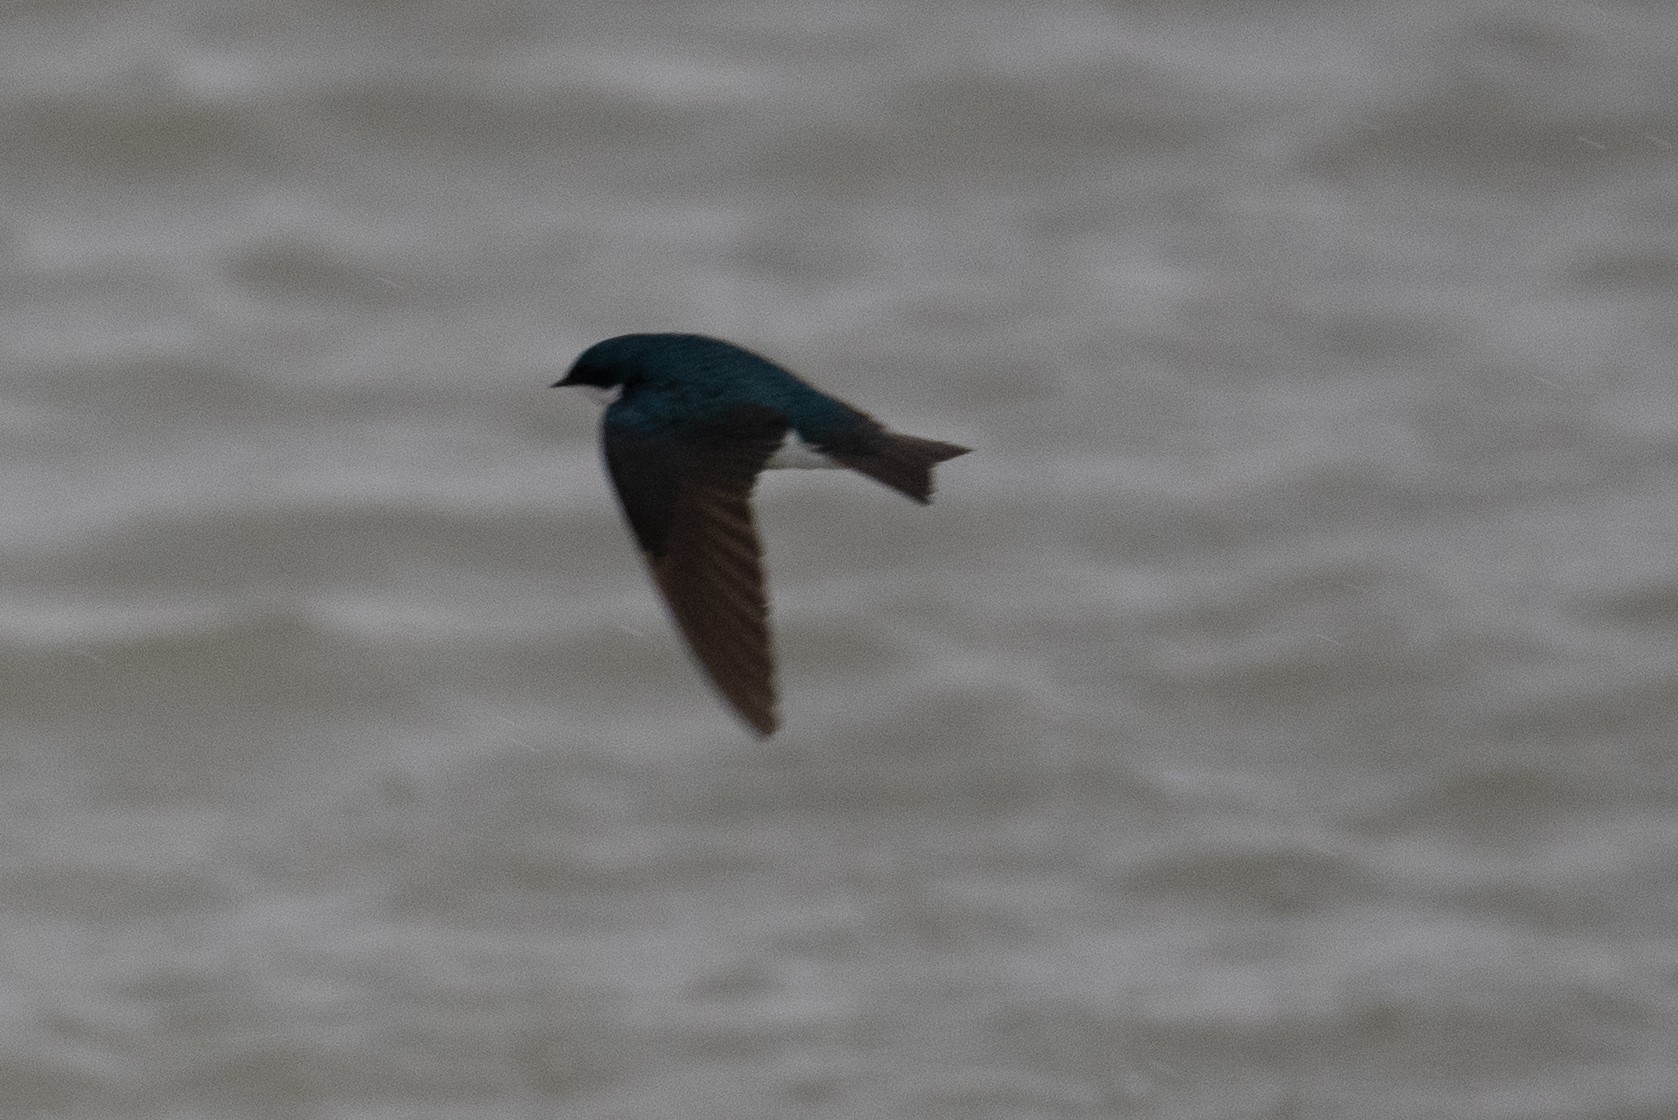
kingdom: Animalia
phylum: Chordata
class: Aves
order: Passeriformes
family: Hirundinidae
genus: Tachycineta
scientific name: Tachycineta bicolor
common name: Tree swallow
